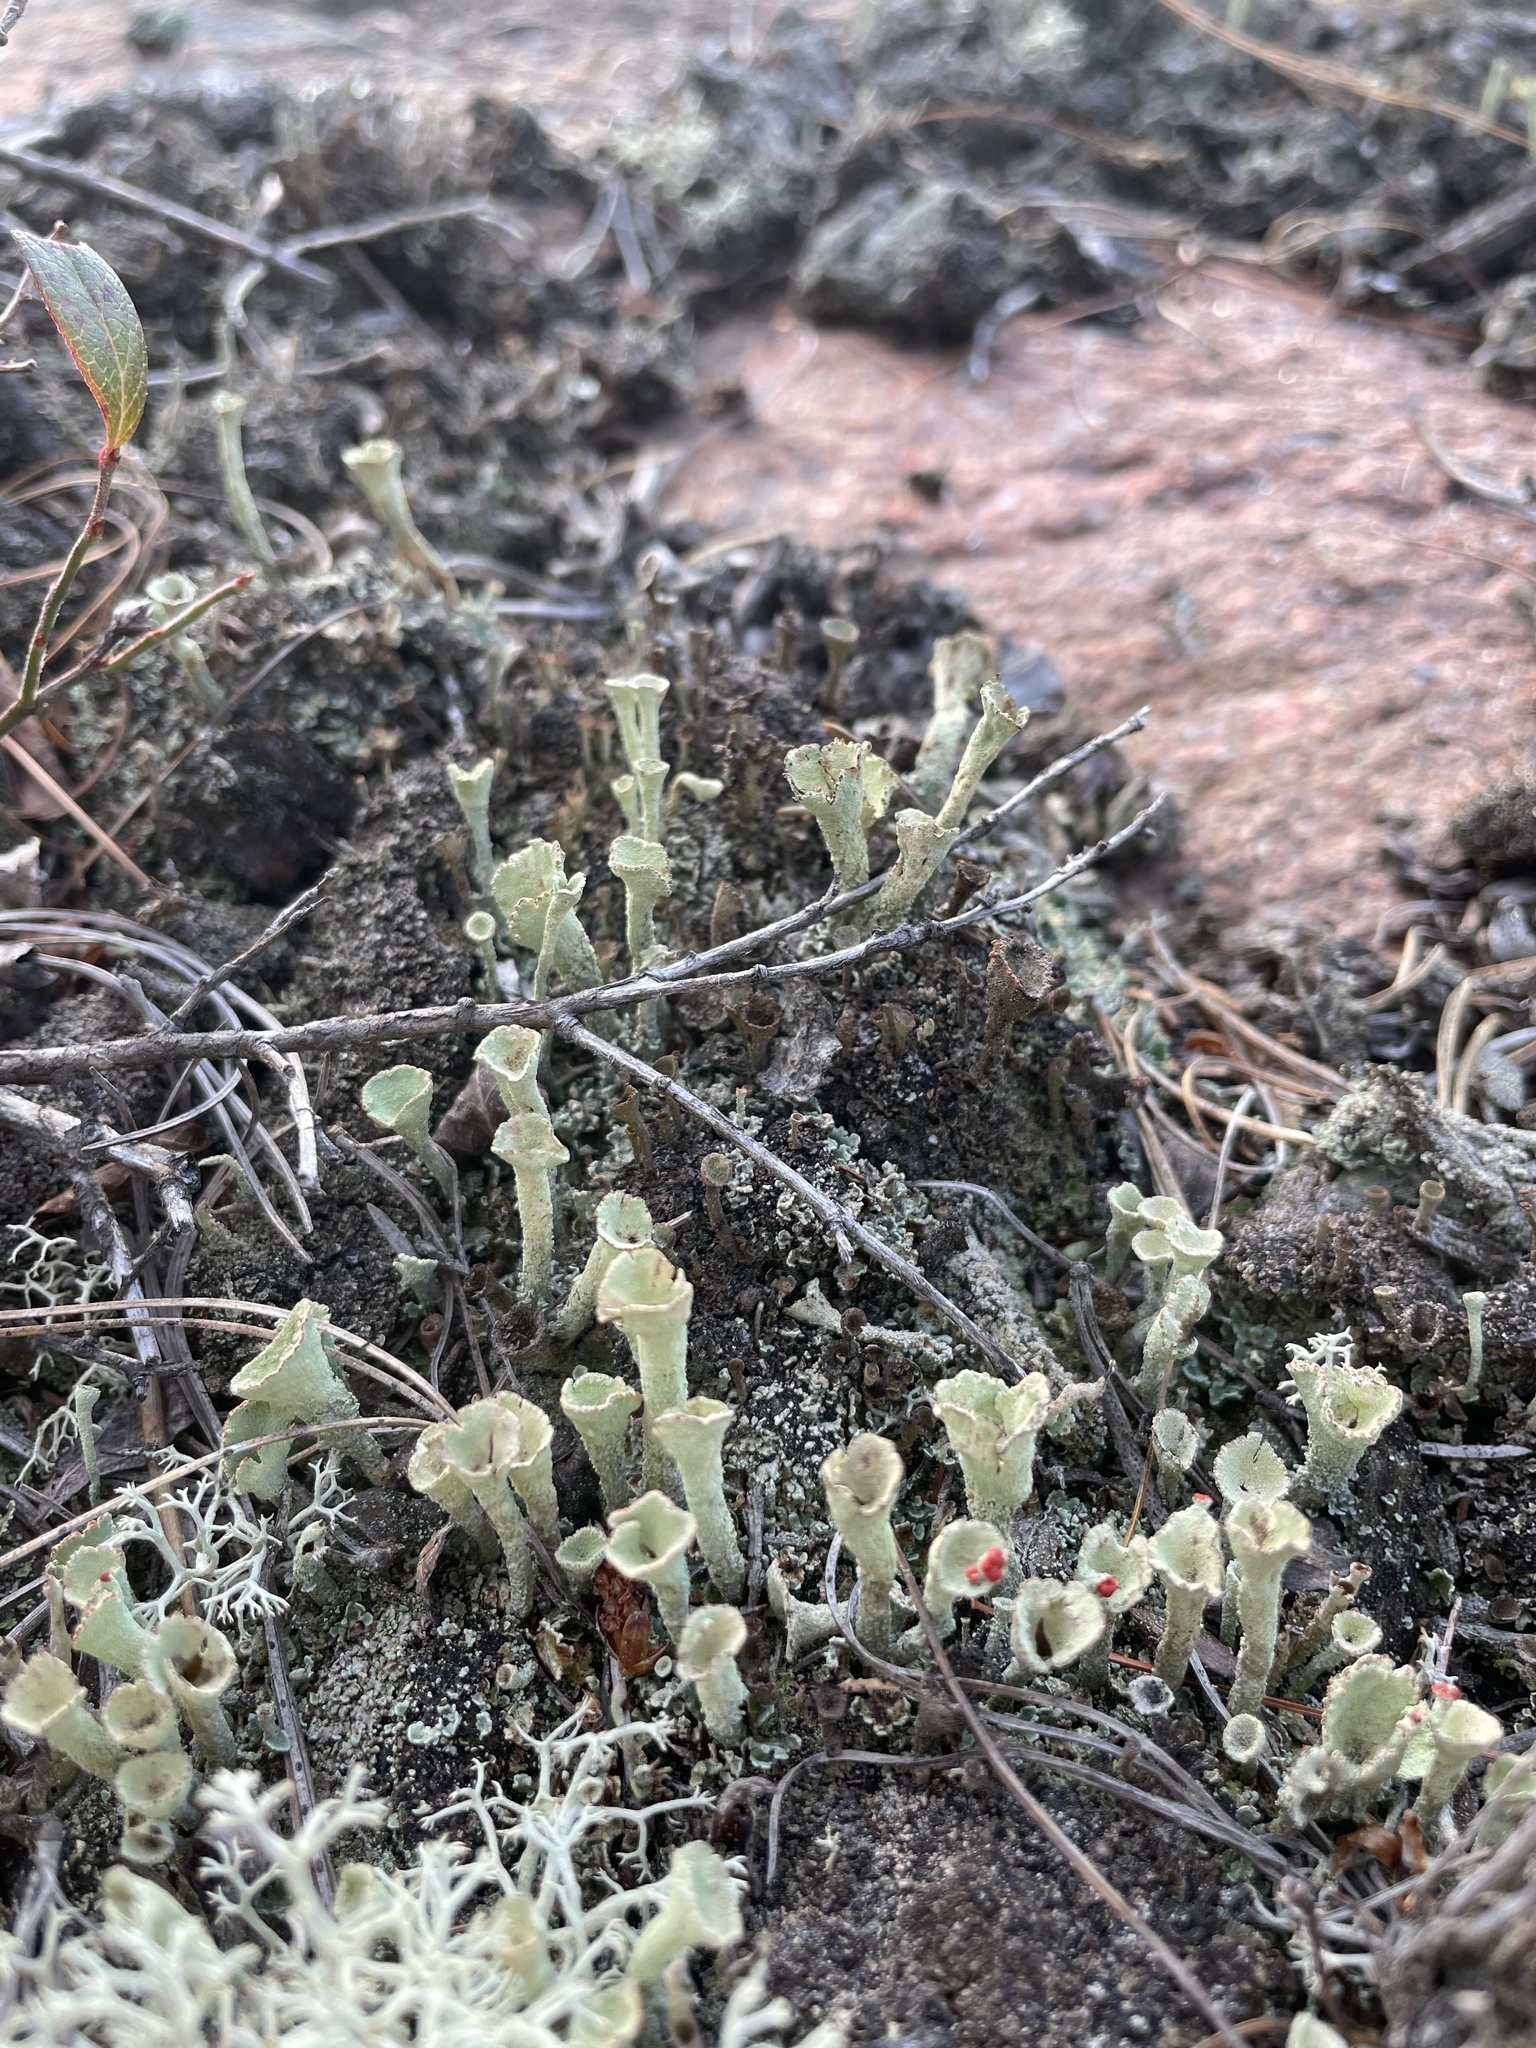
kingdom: Fungi
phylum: Ascomycota
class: Lecanoromycetes
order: Lecanorales
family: Cladoniaceae
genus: Cladonia
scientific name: Cladonia pleurota
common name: Red-fruited pixie cup
